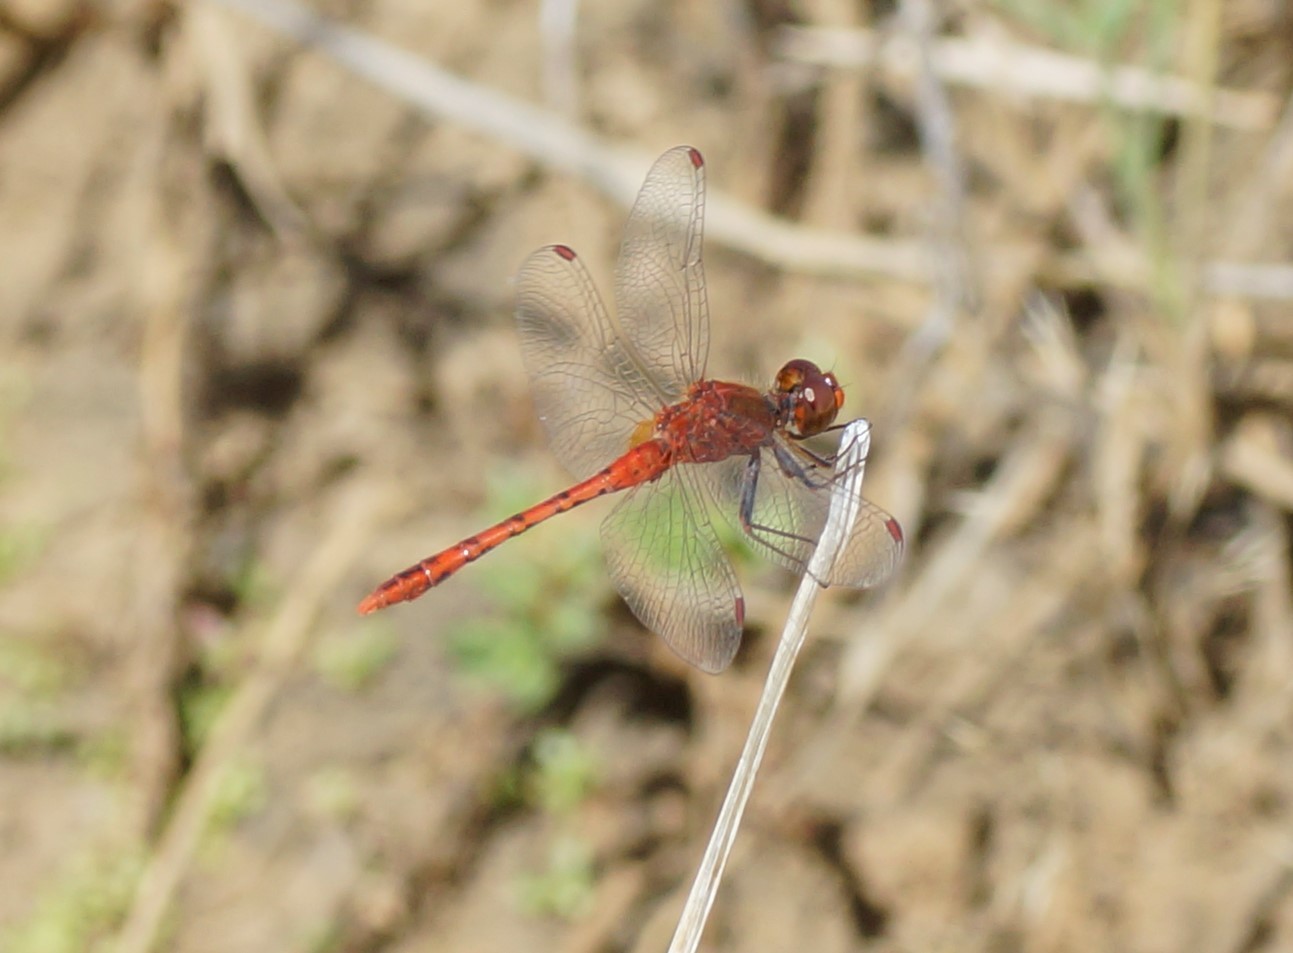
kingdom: Animalia
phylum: Arthropoda
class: Insecta
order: Odonata
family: Libellulidae
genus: Diplacodes
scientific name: Diplacodes bipunctata
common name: Red percher dragonfly
